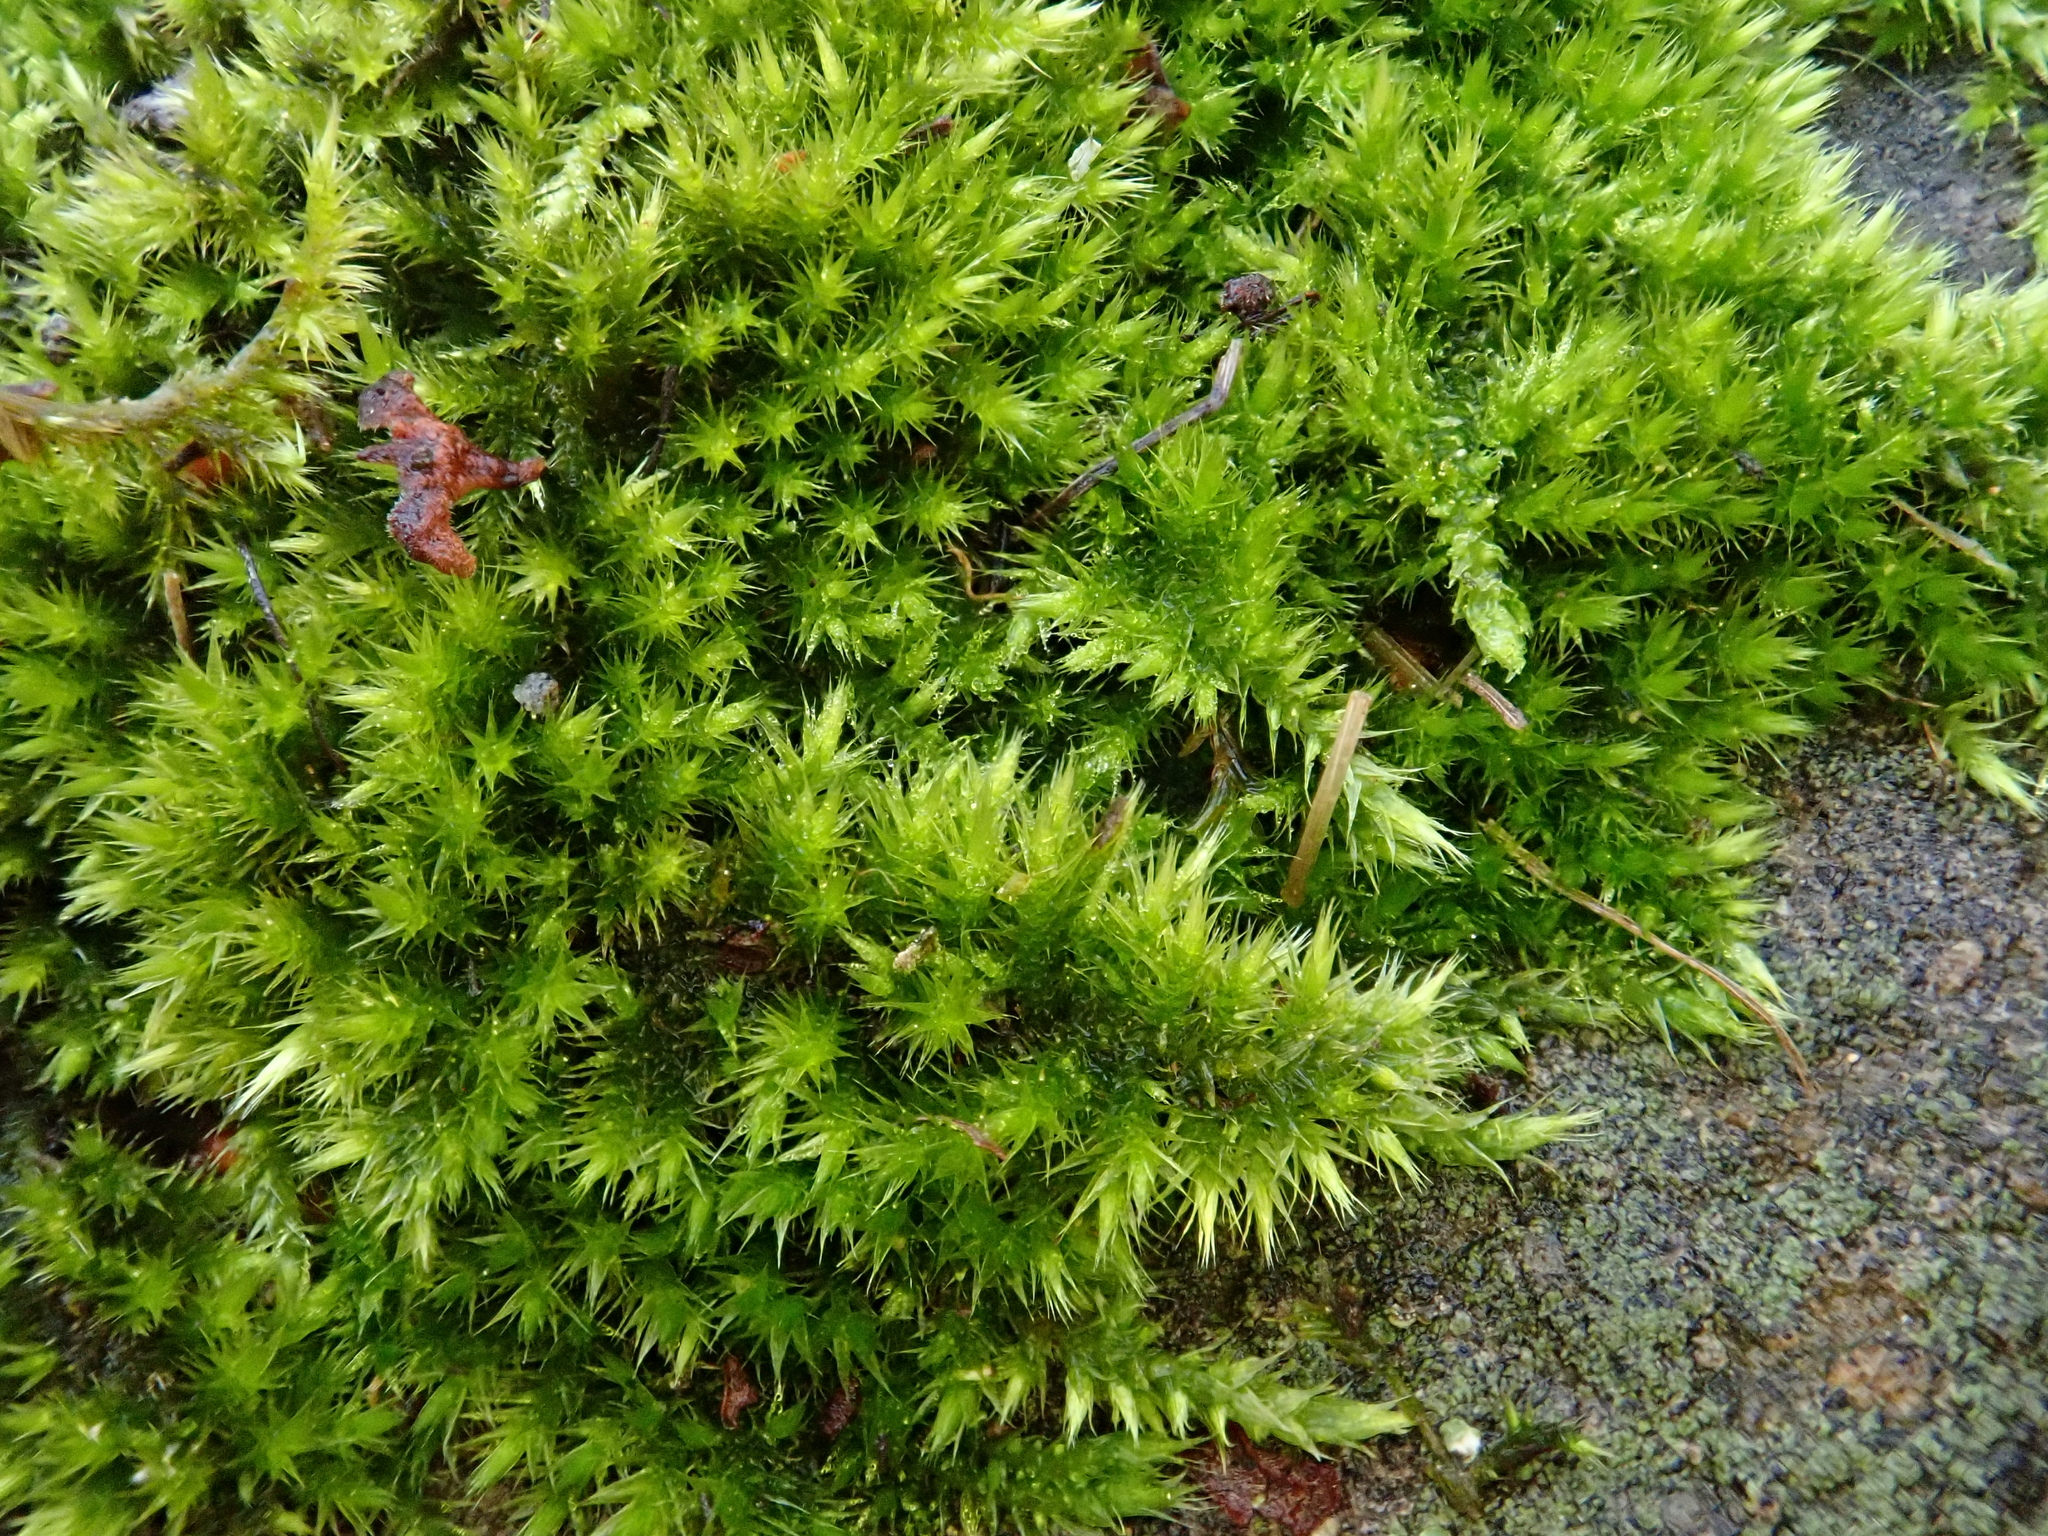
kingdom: Plantae
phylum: Bryophyta
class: Bryopsida
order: Hypnales
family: Brachytheciaceae
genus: Homalothecium
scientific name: Homalothecium sericeum
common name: Silky wall feather-moss
